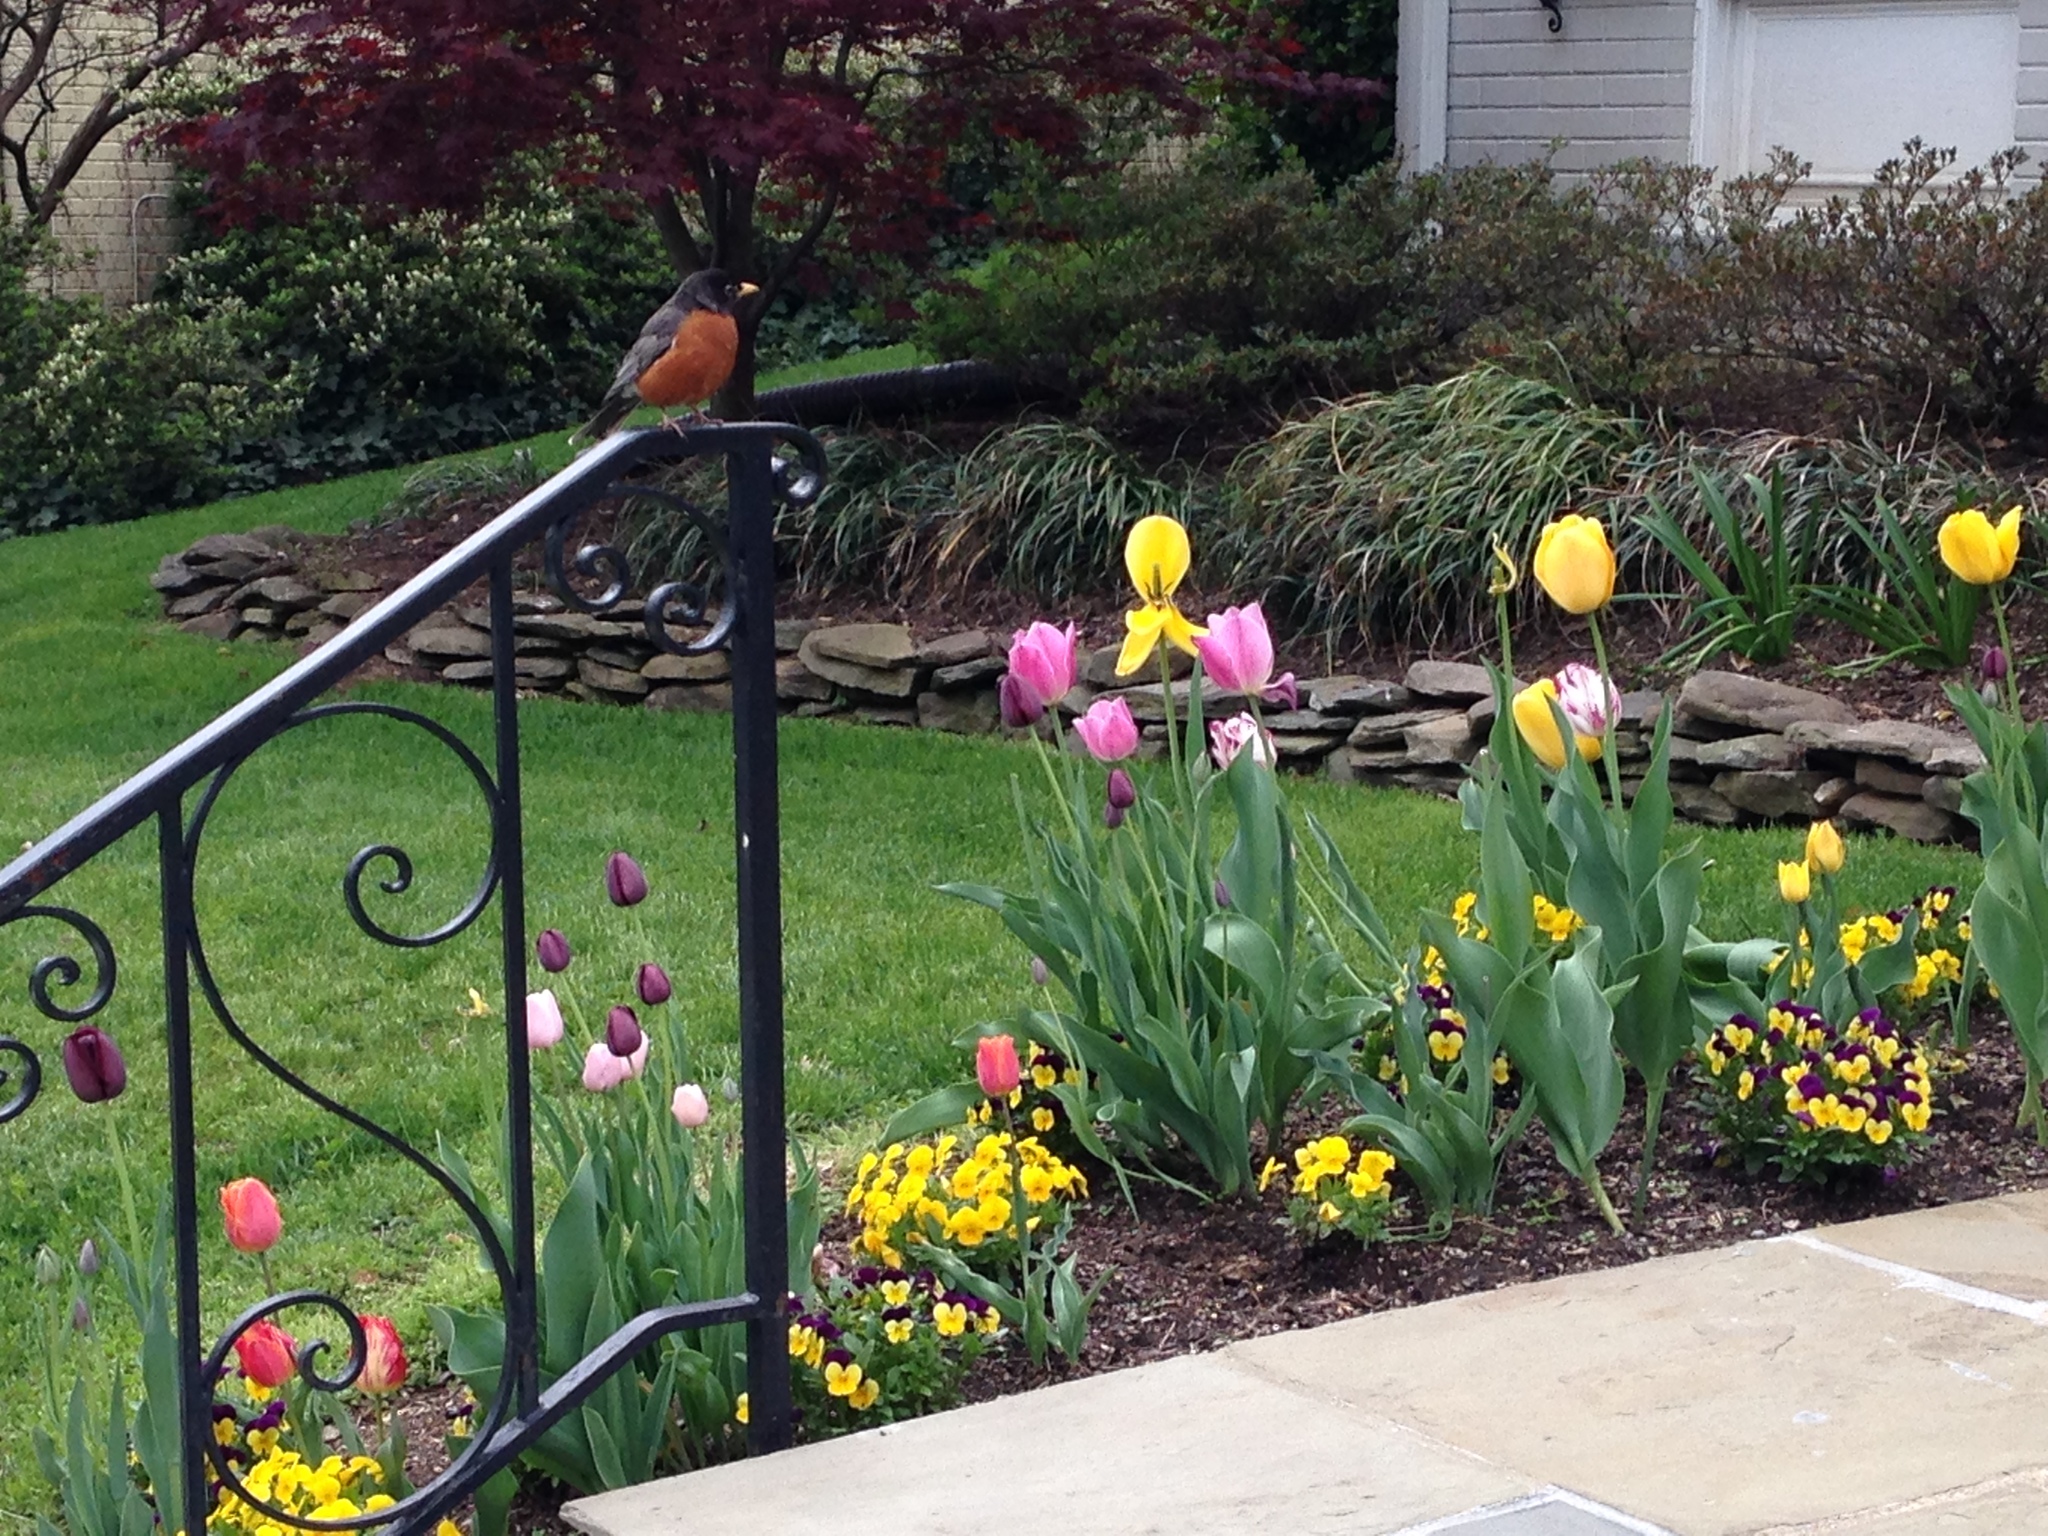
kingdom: Animalia
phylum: Chordata
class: Aves
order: Passeriformes
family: Turdidae
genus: Turdus
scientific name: Turdus migratorius
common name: American robin
